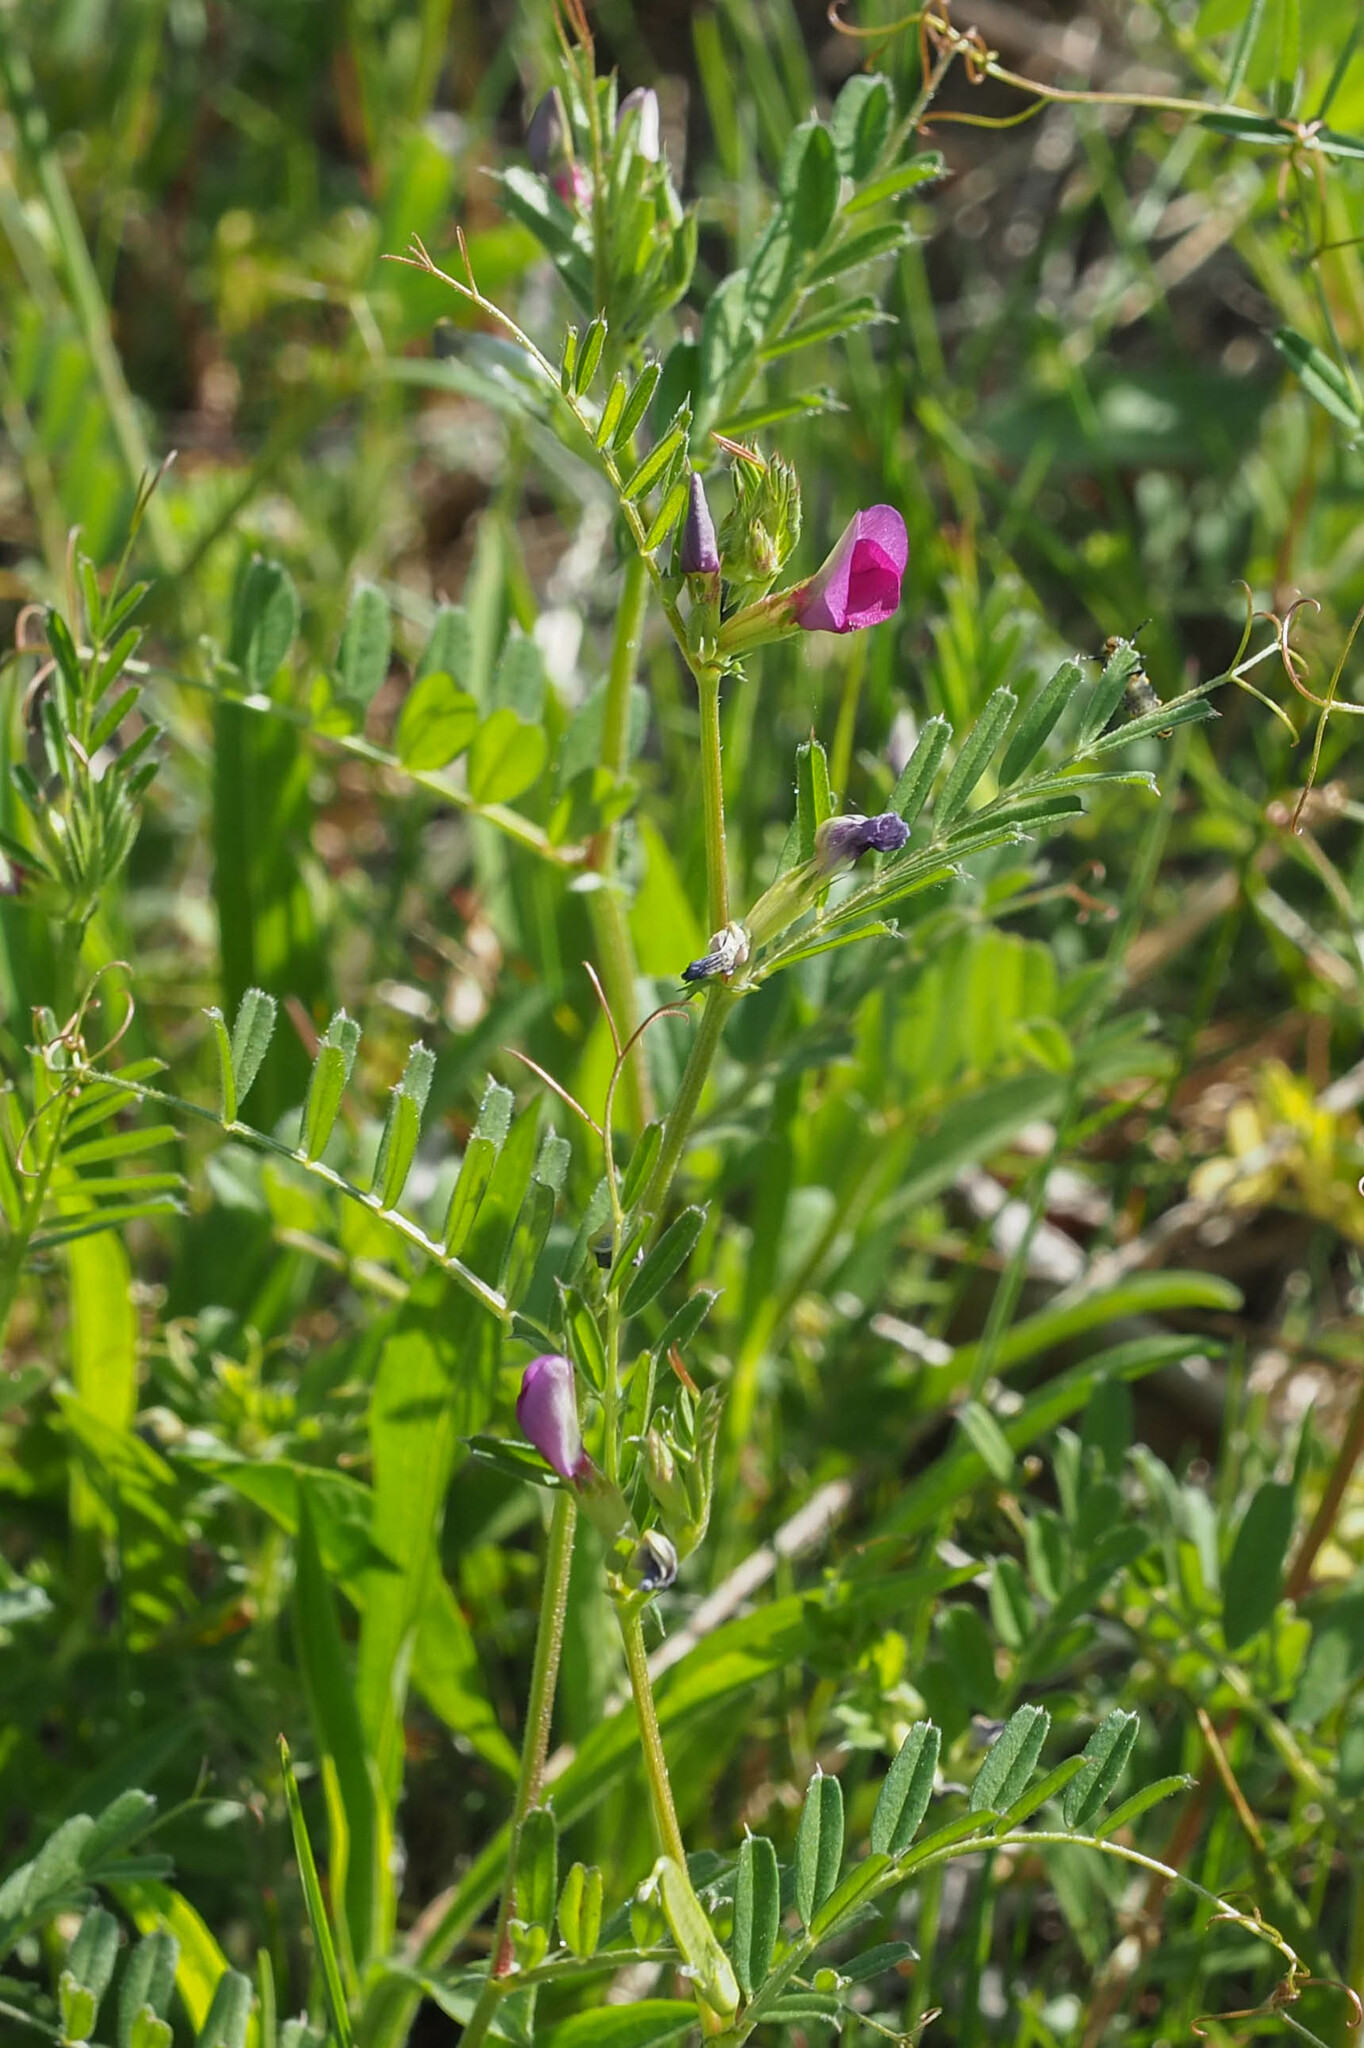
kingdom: Plantae
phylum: Tracheophyta
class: Magnoliopsida
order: Fabales
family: Fabaceae
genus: Vicia
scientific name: Vicia sativa
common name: Garden vetch
